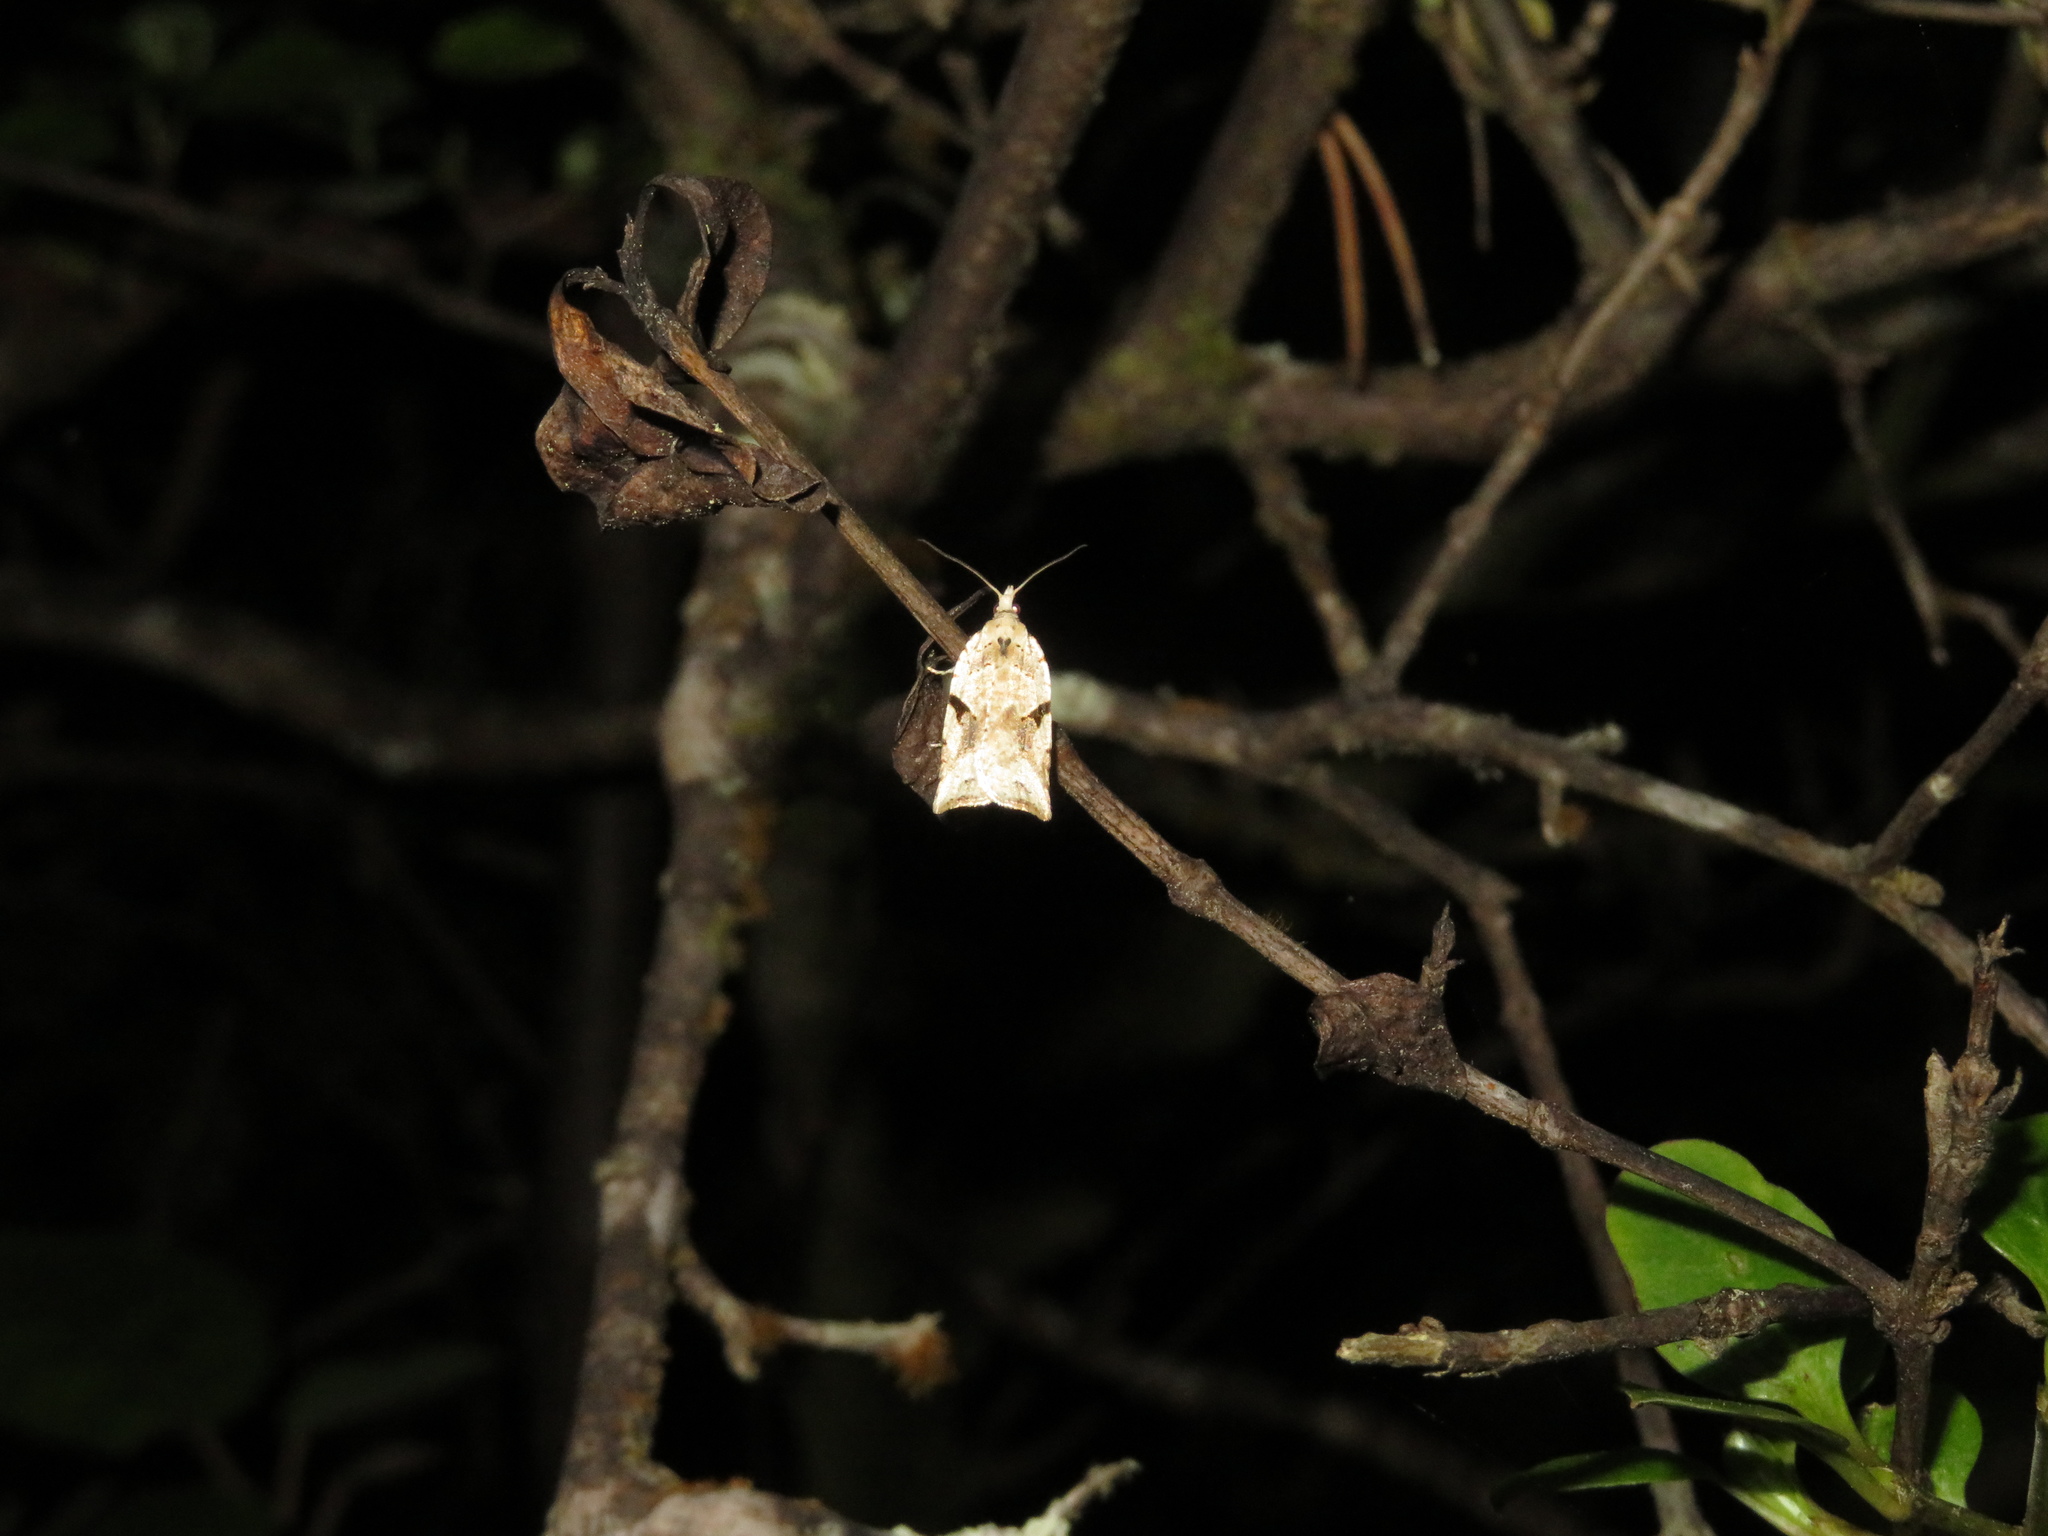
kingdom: Animalia
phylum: Arthropoda
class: Insecta
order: Lepidoptera
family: Tortricidae
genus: Leucotenes
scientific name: Leucotenes coprosmae
